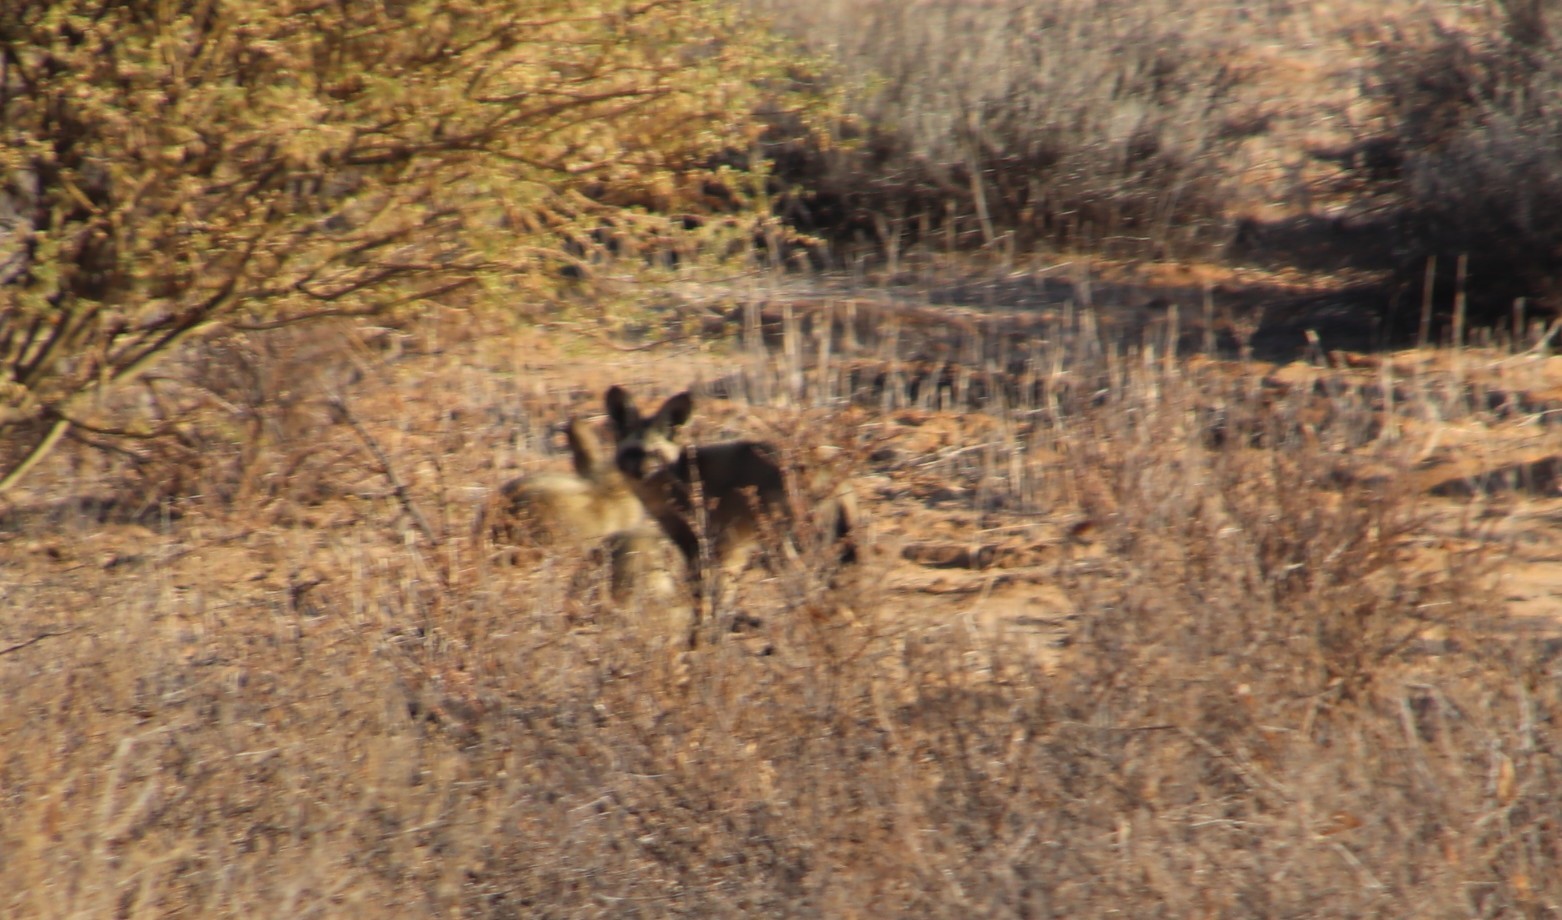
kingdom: Animalia
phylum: Chordata
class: Mammalia
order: Carnivora
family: Canidae
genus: Otocyon
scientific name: Otocyon megalotis
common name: Bat-eared fox
